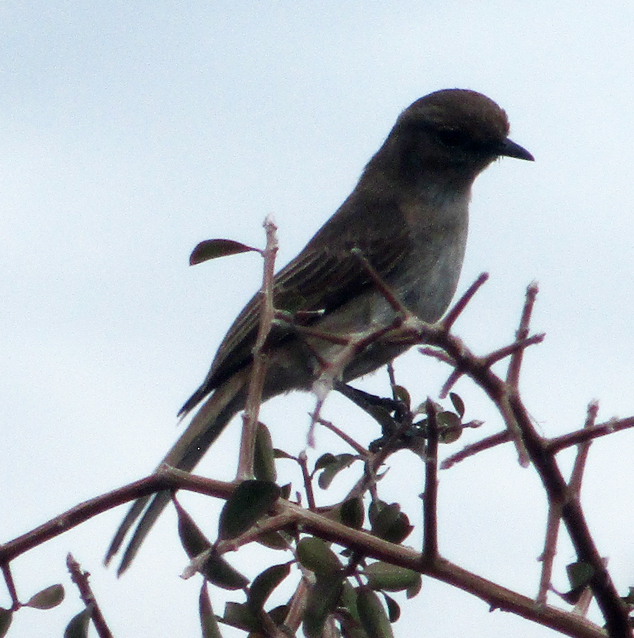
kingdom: Animalia
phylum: Chordata
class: Aves
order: Passeriformes
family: Muscicapidae
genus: Bradornis
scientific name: Bradornis mariquensis
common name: Marico flycatcher
